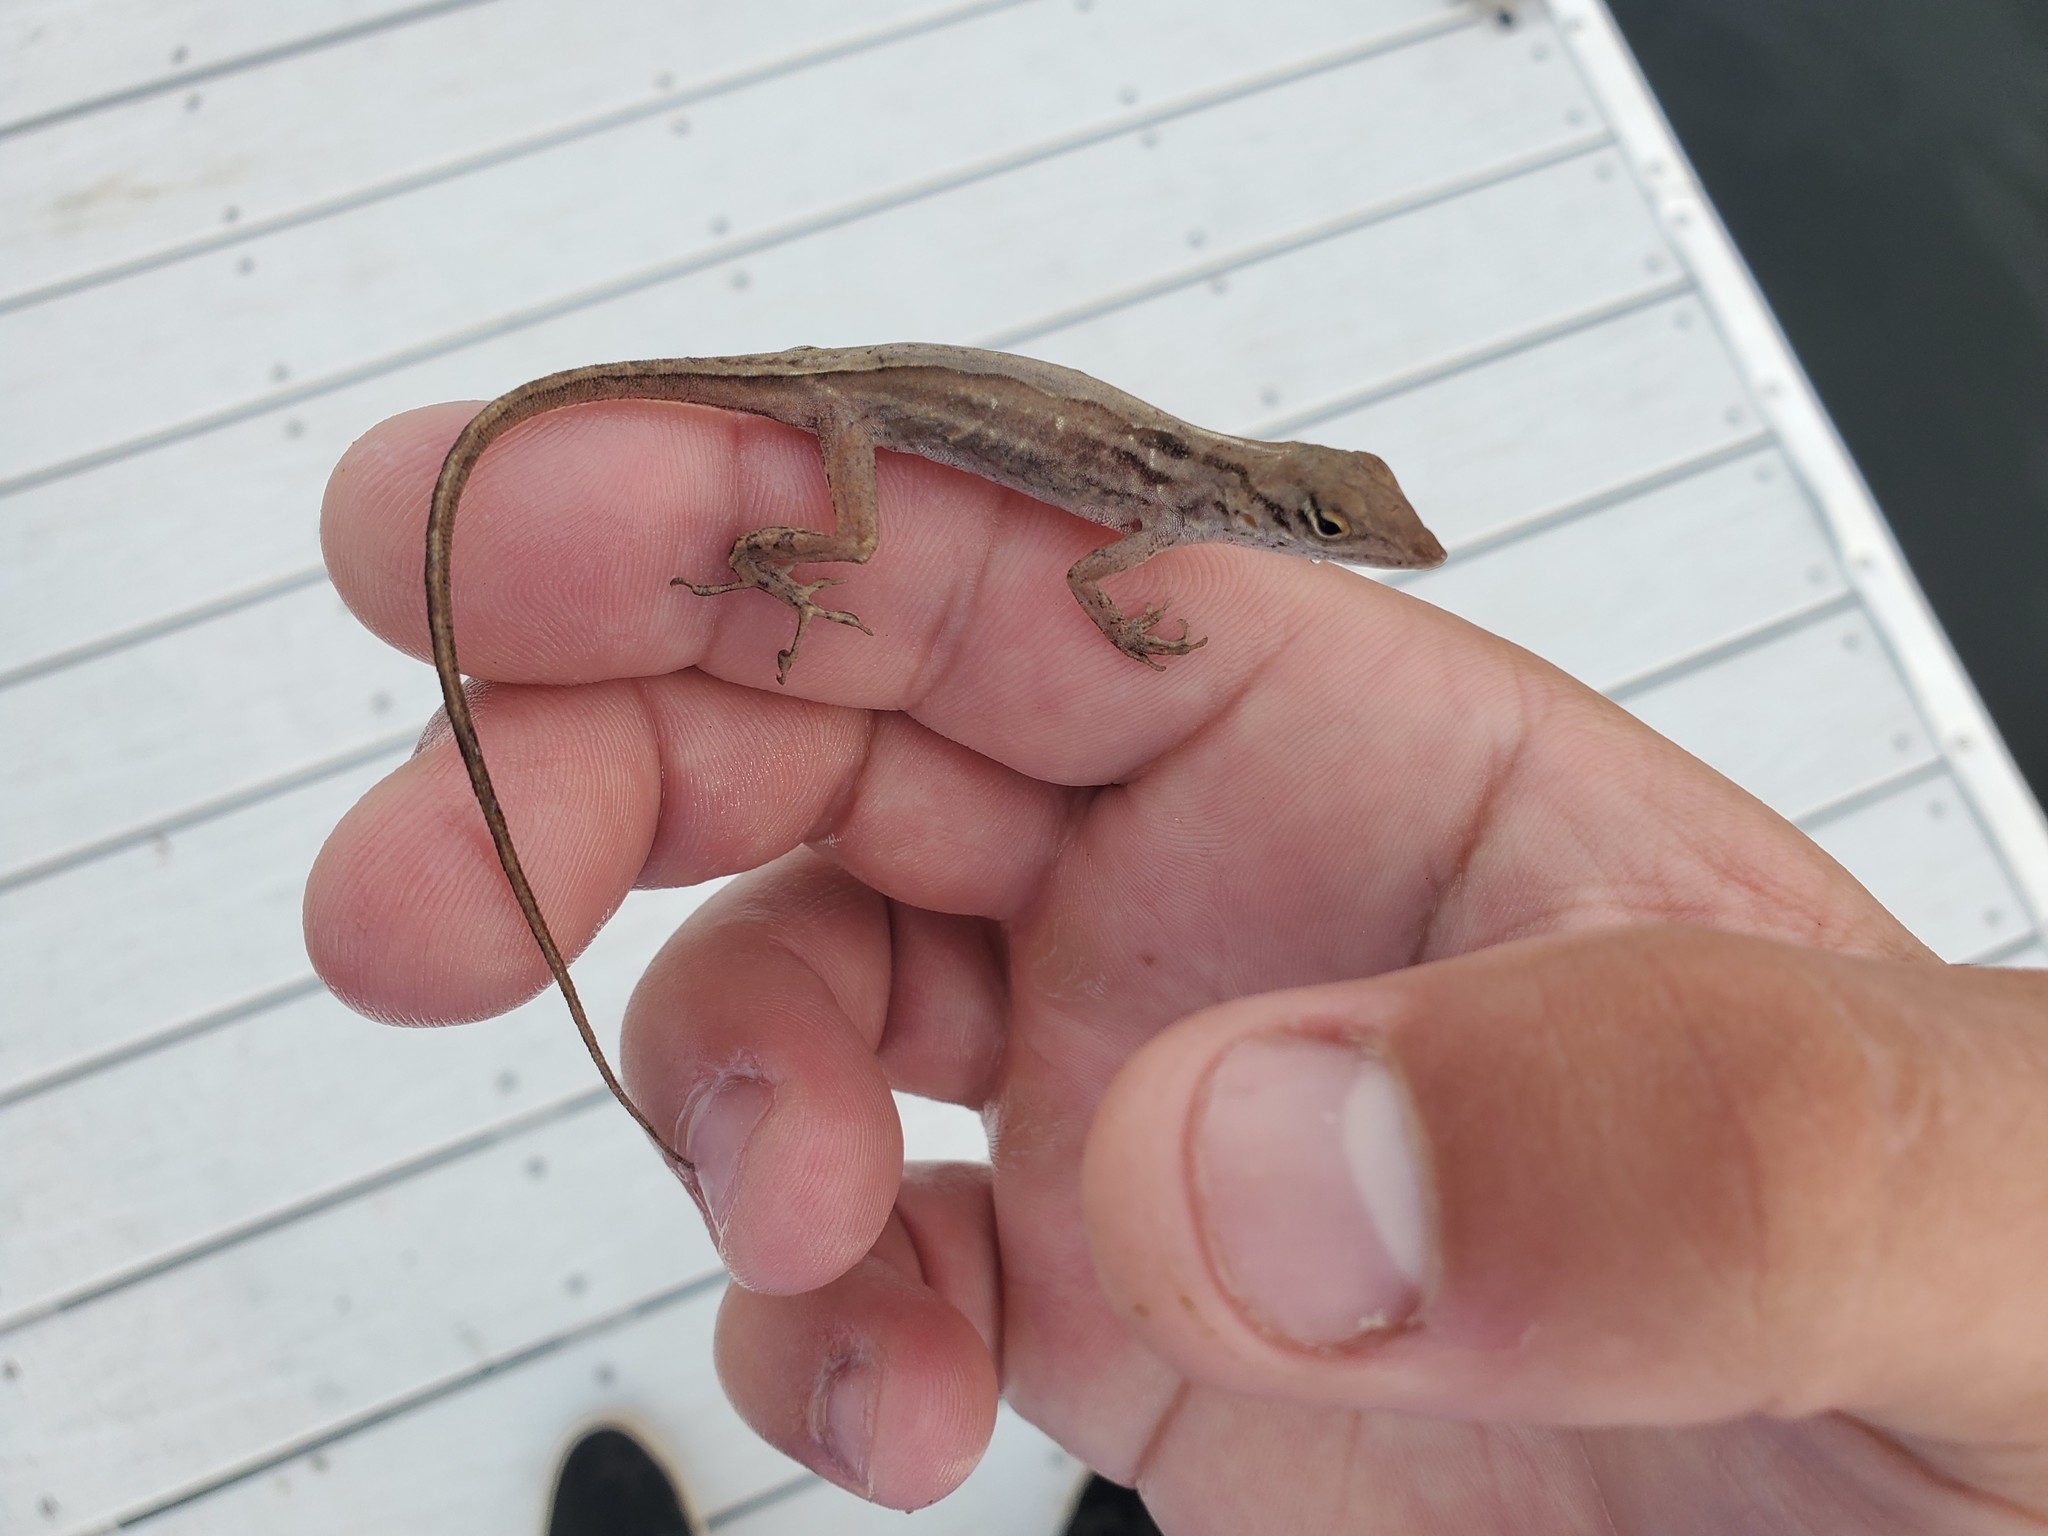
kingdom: Animalia
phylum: Chordata
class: Squamata
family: Dactyloidae
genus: Anolis
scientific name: Anolis sagrei
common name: Brown anole
